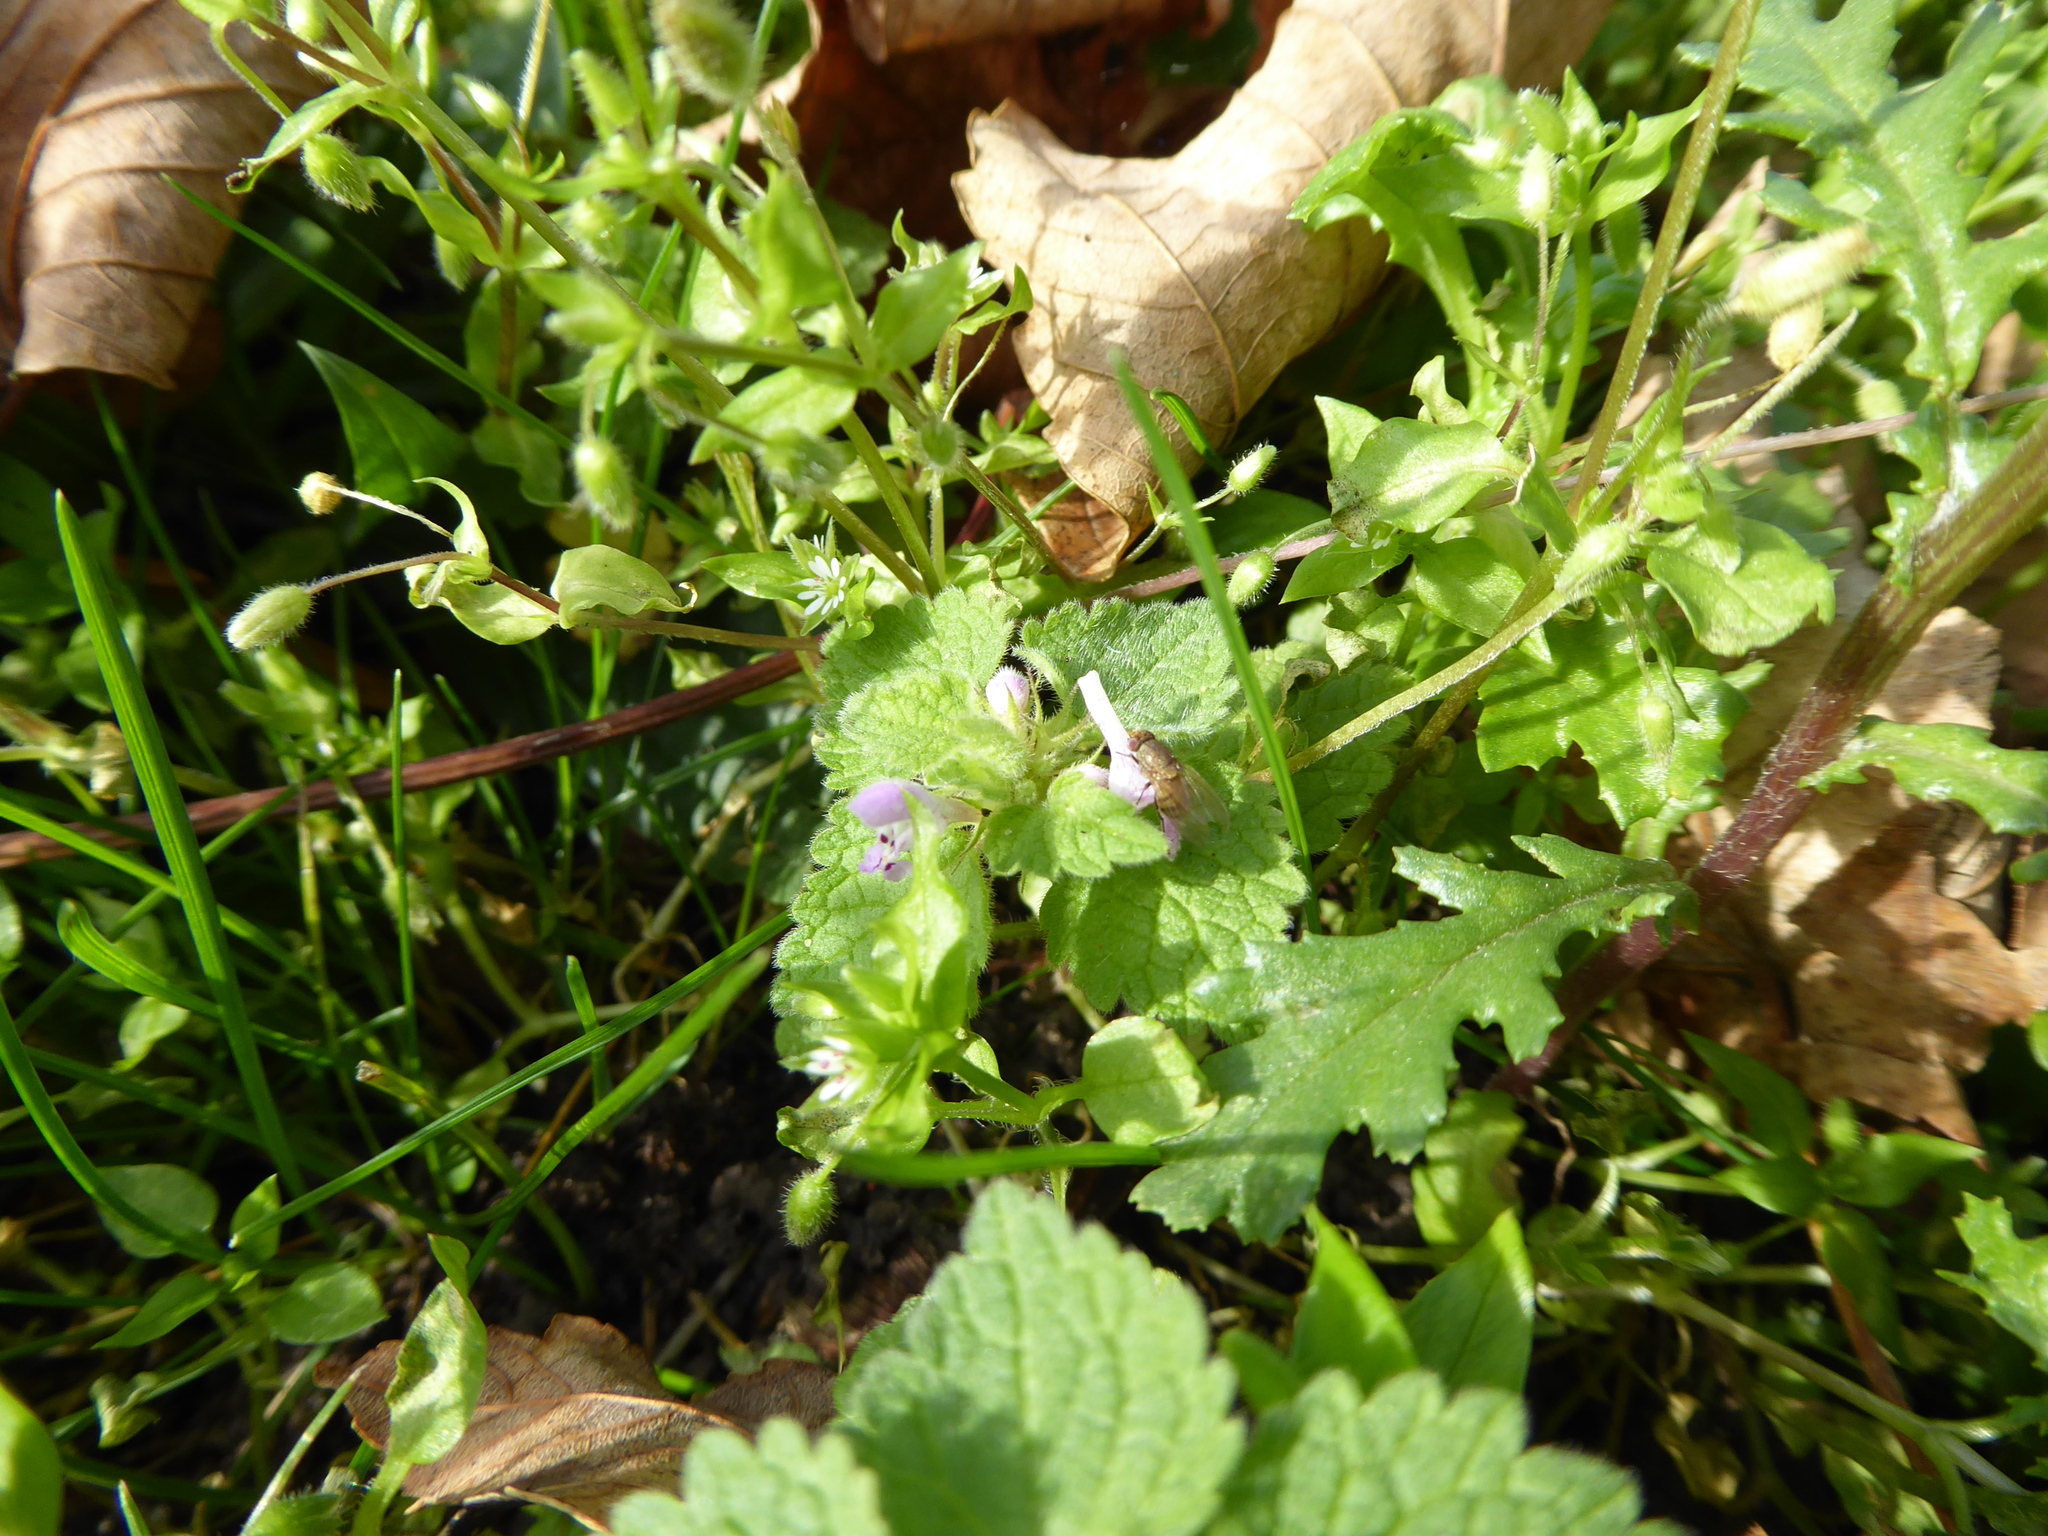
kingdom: Plantae
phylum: Tracheophyta
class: Magnoliopsida
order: Lamiales
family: Lamiaceae
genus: Lamium
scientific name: Lamium purpureum
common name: Red dead-nettle
